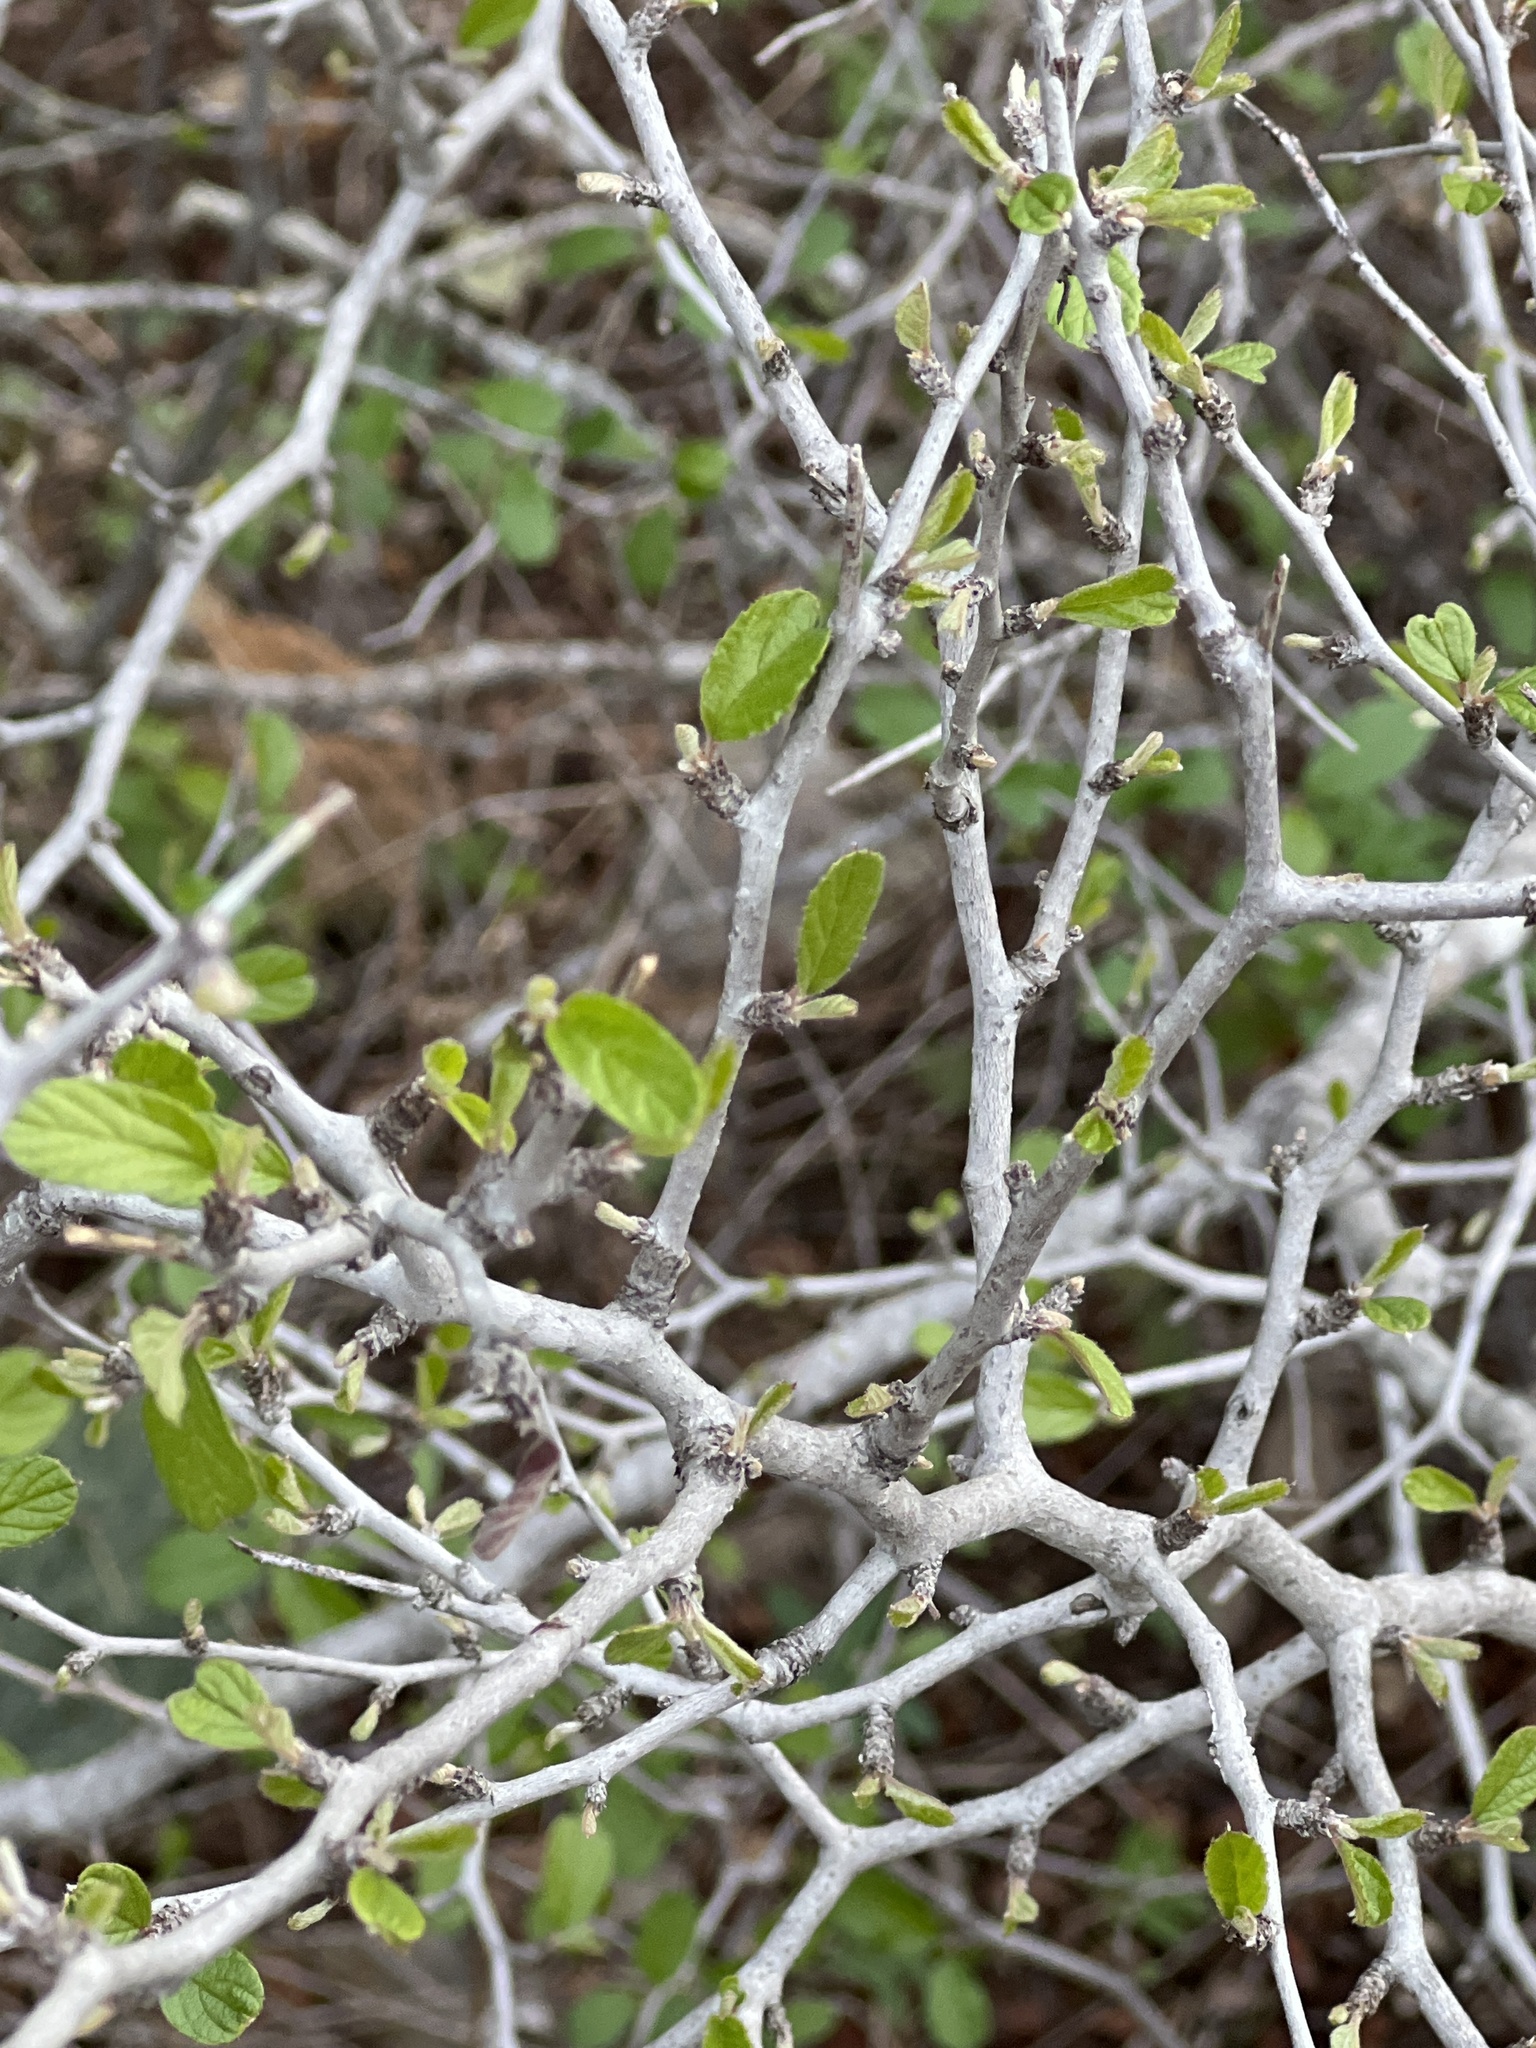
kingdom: Plantae
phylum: Tracheophyta
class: Magnoliopsida
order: Rosales
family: Rhamnaceae
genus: Colubrina
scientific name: Colubrina texensis
